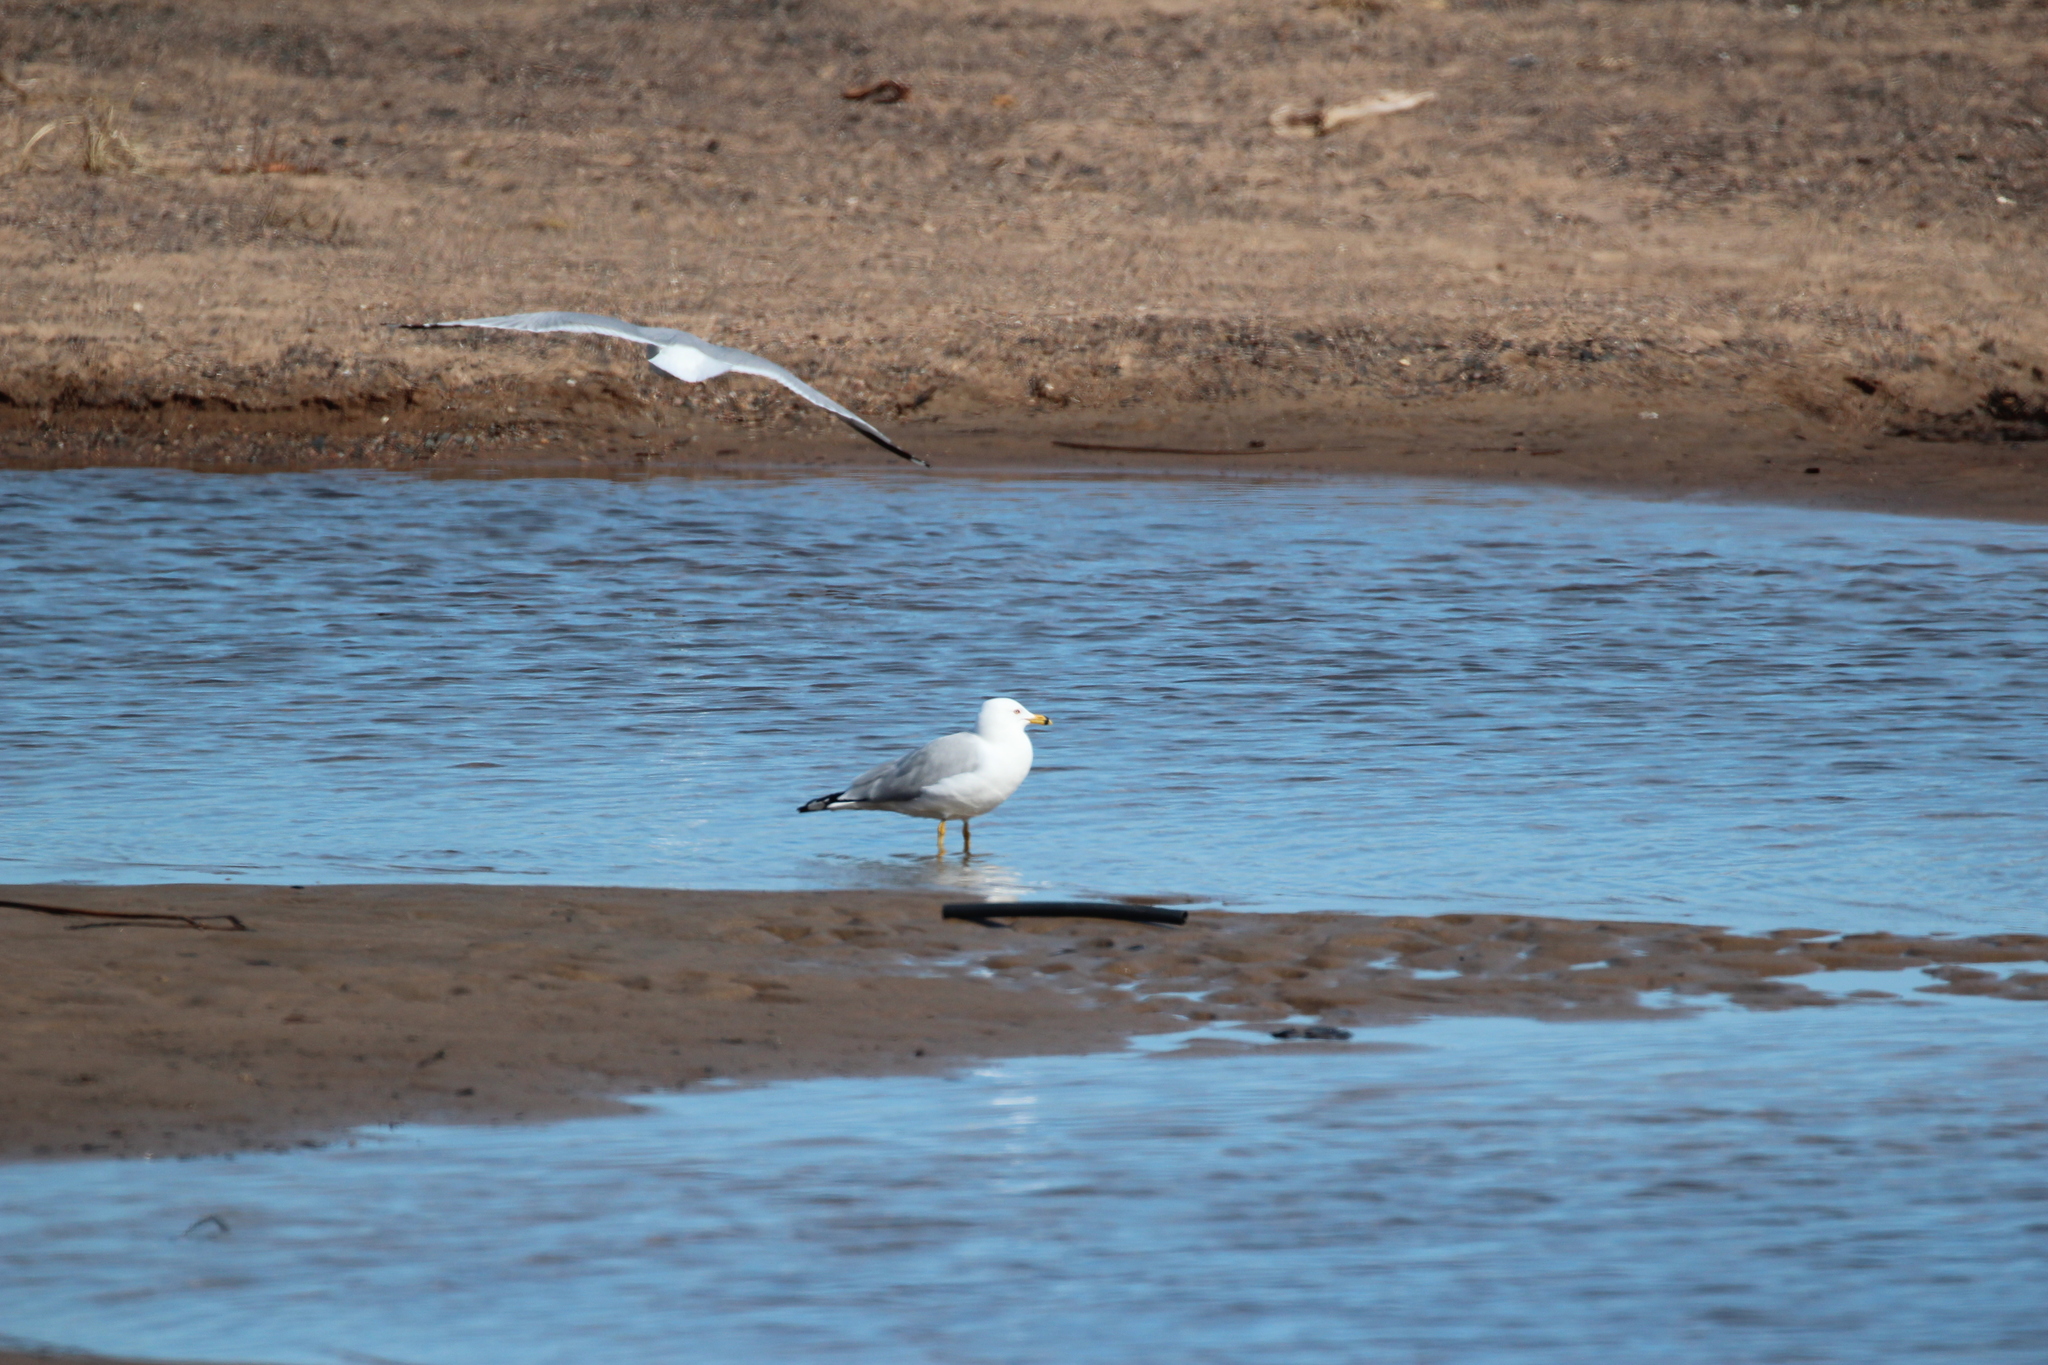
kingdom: Animalia
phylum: Chordata
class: Aves
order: Charadriiformes
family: Laridae
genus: Larus
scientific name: Larus delawarensis
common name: Ring-billed gull
